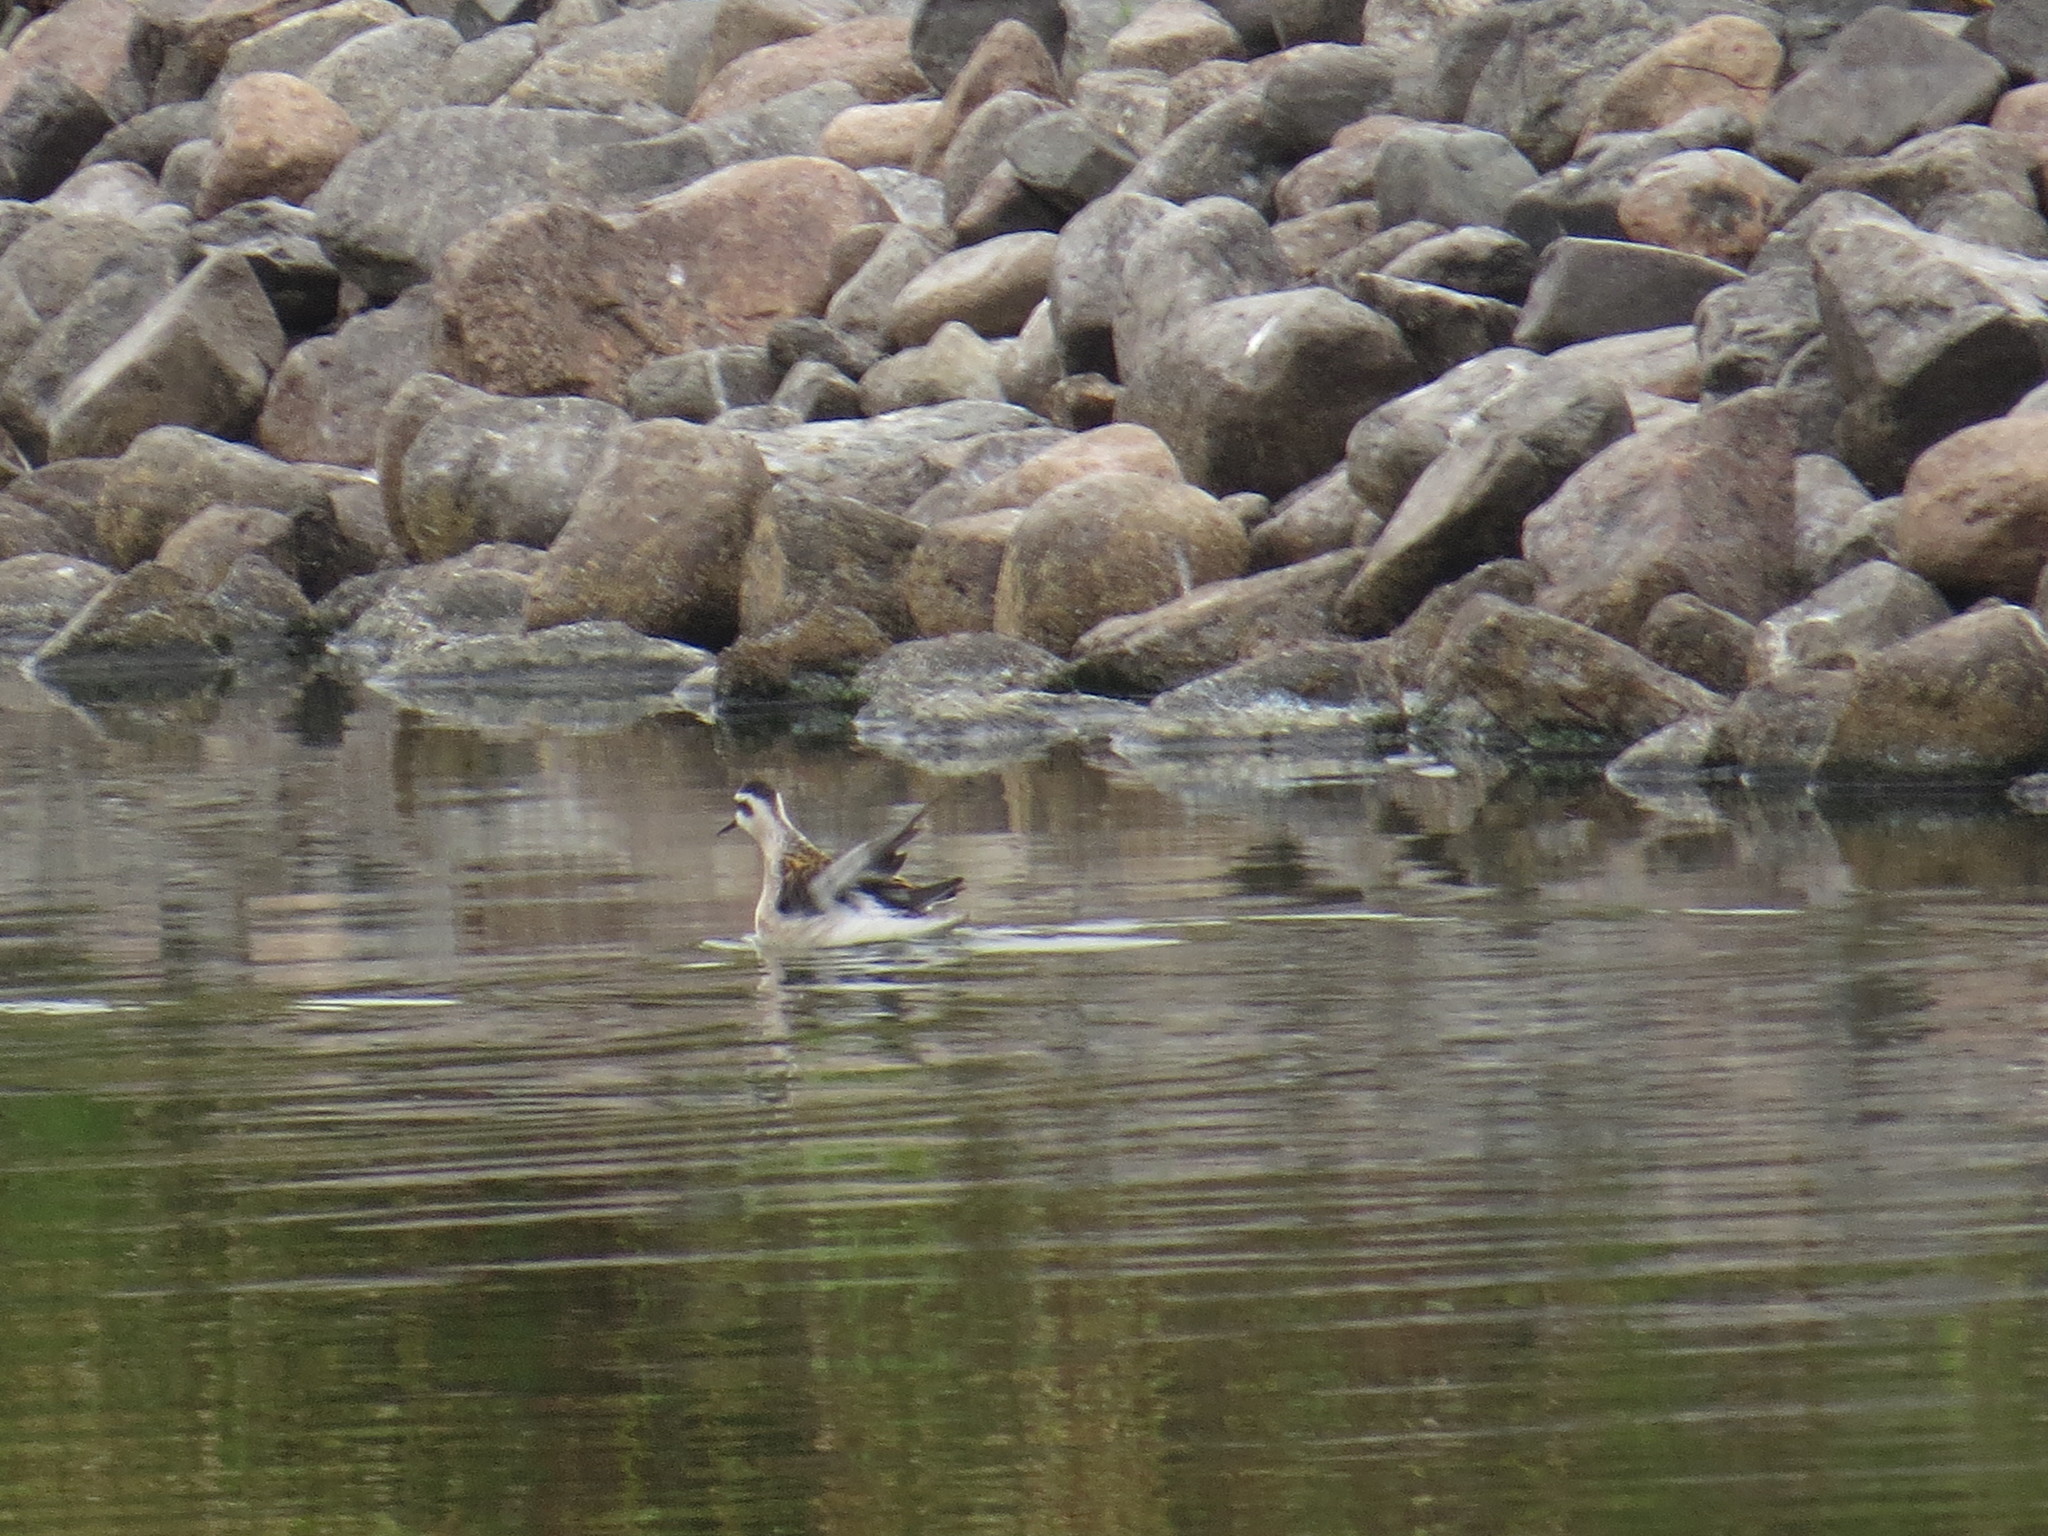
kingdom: Animalia
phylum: Chordata
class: Aves
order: Charadriiformes
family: Scolopacidae
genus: Phalaropus
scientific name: Phalaropus lobatus
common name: Red-necked phalarope
